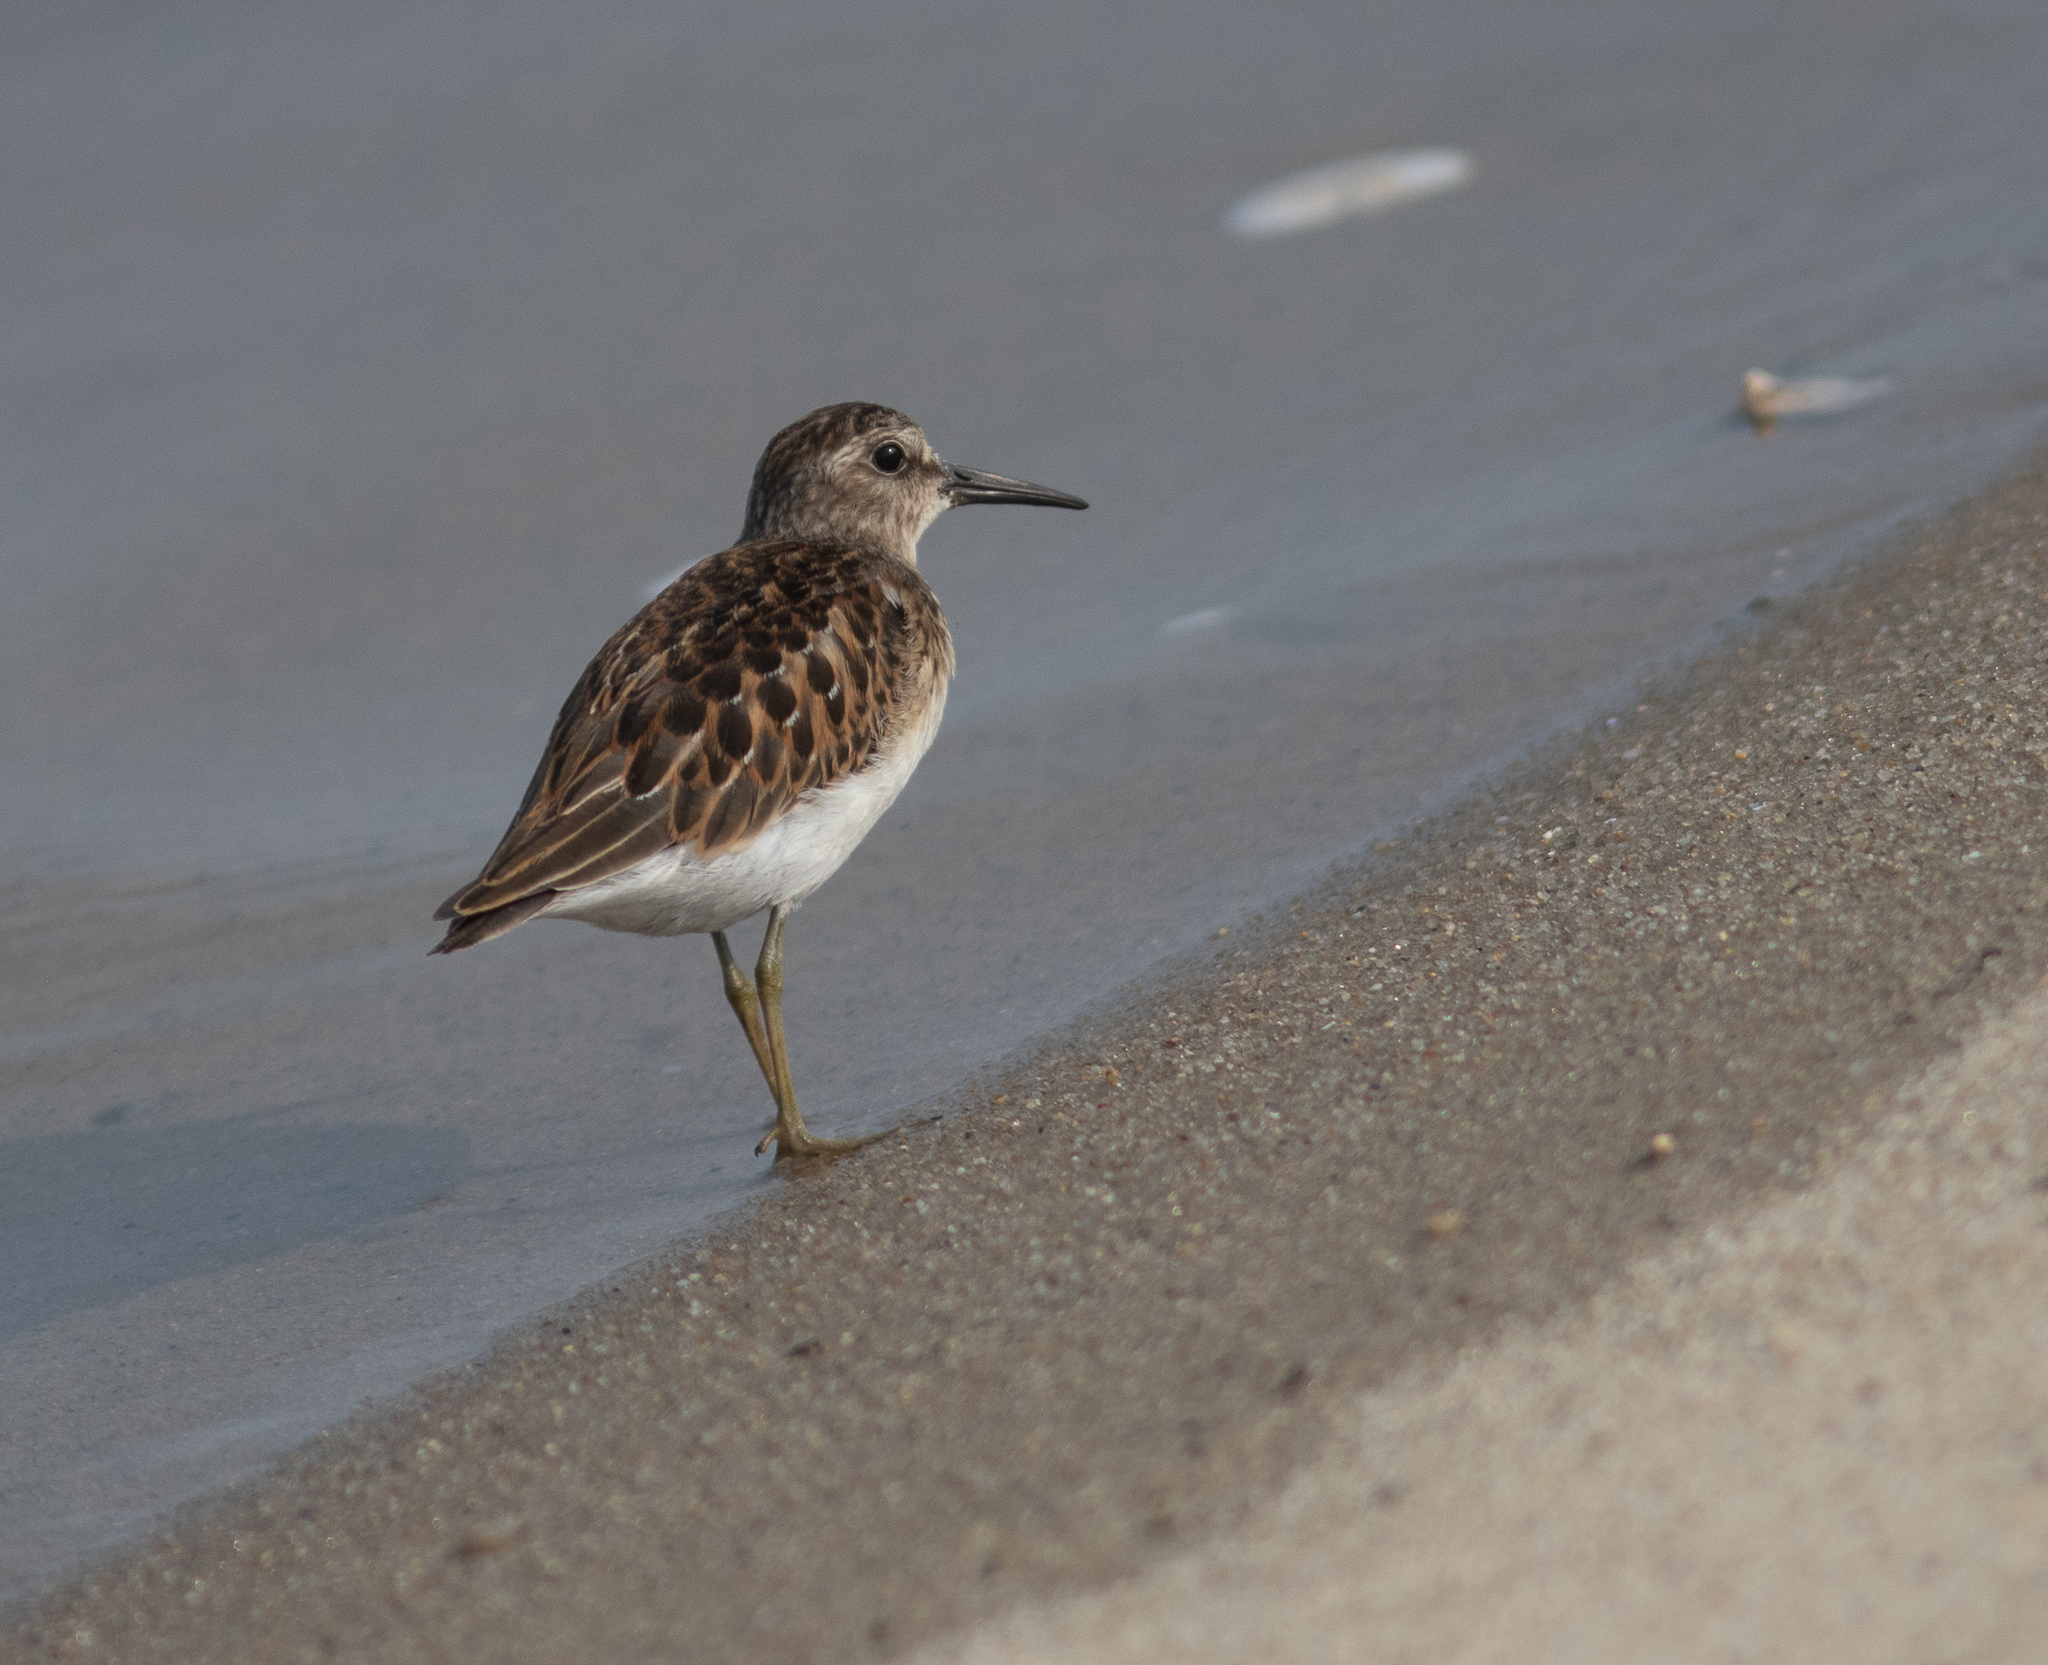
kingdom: Animalia
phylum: Chordata
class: Aves
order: Charadriiformes
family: Scolopacidae
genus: Calidris
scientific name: Calidris minutilla
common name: Least sandpiper
